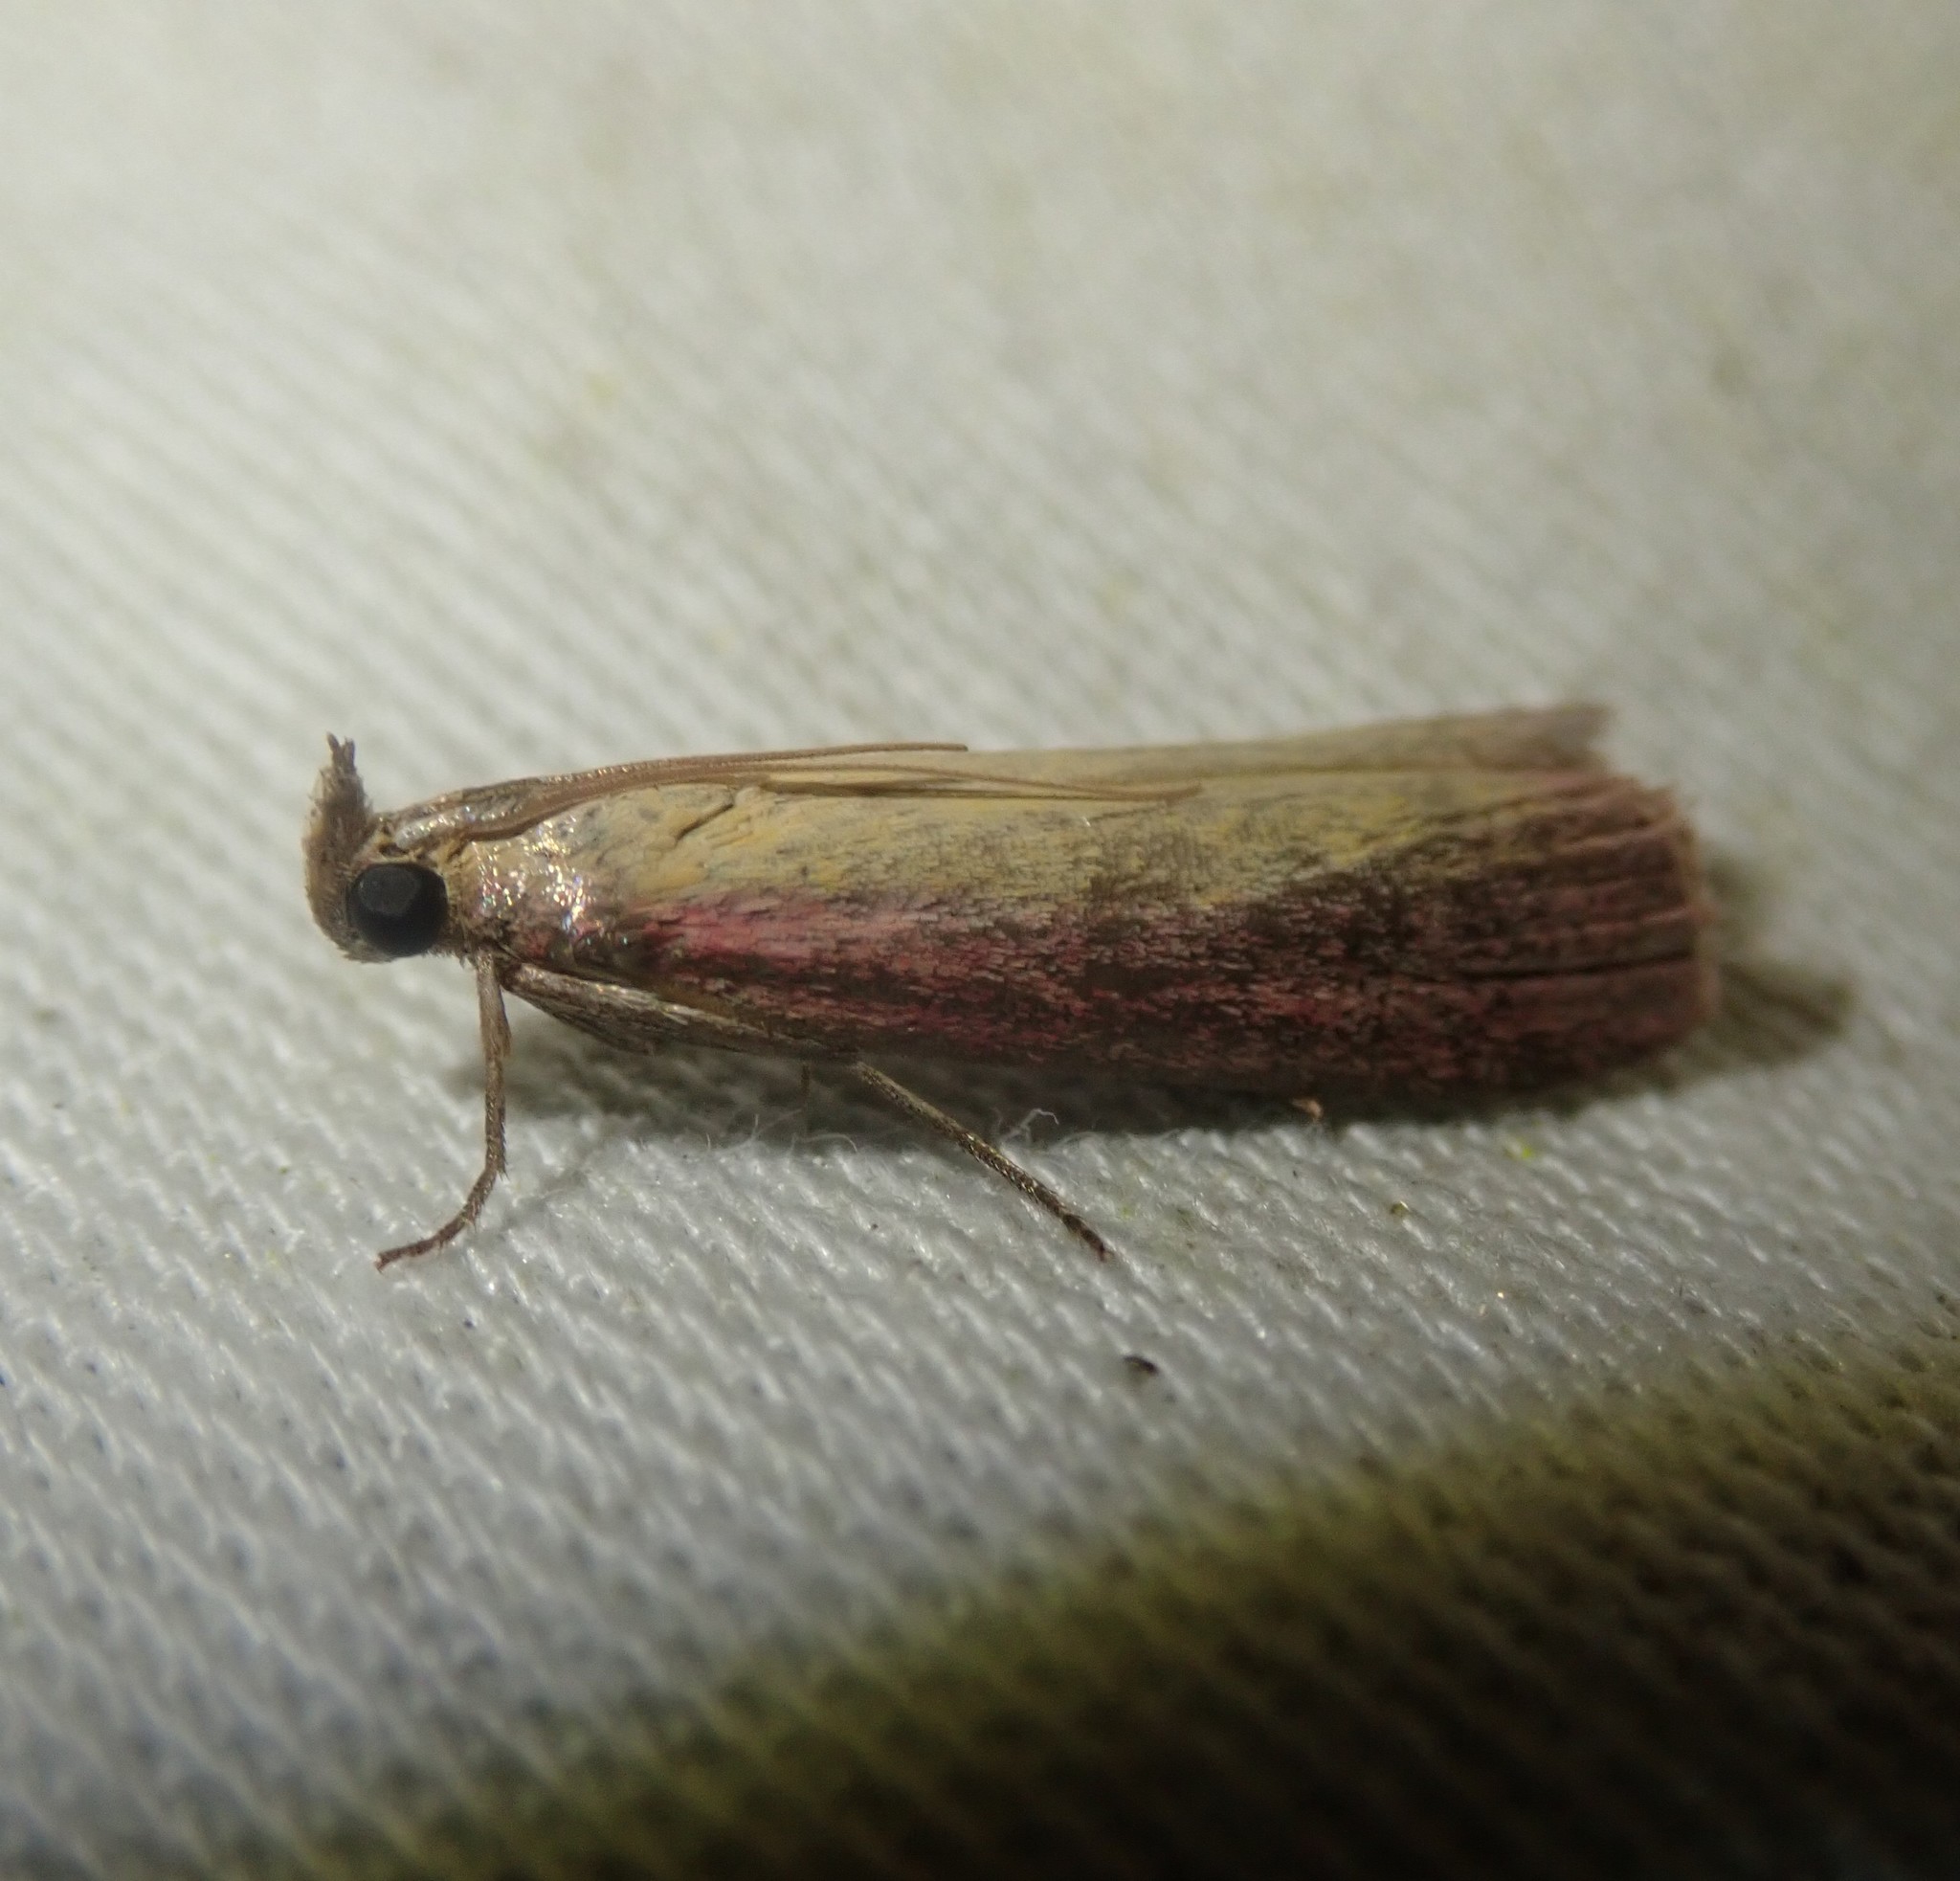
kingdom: Animalia
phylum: Arthropoda
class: Insecta
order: Lepidoptera
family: Pyralidae
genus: Oncocera
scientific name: Oncocera semirubella
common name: Rosy-striped knot-horn
